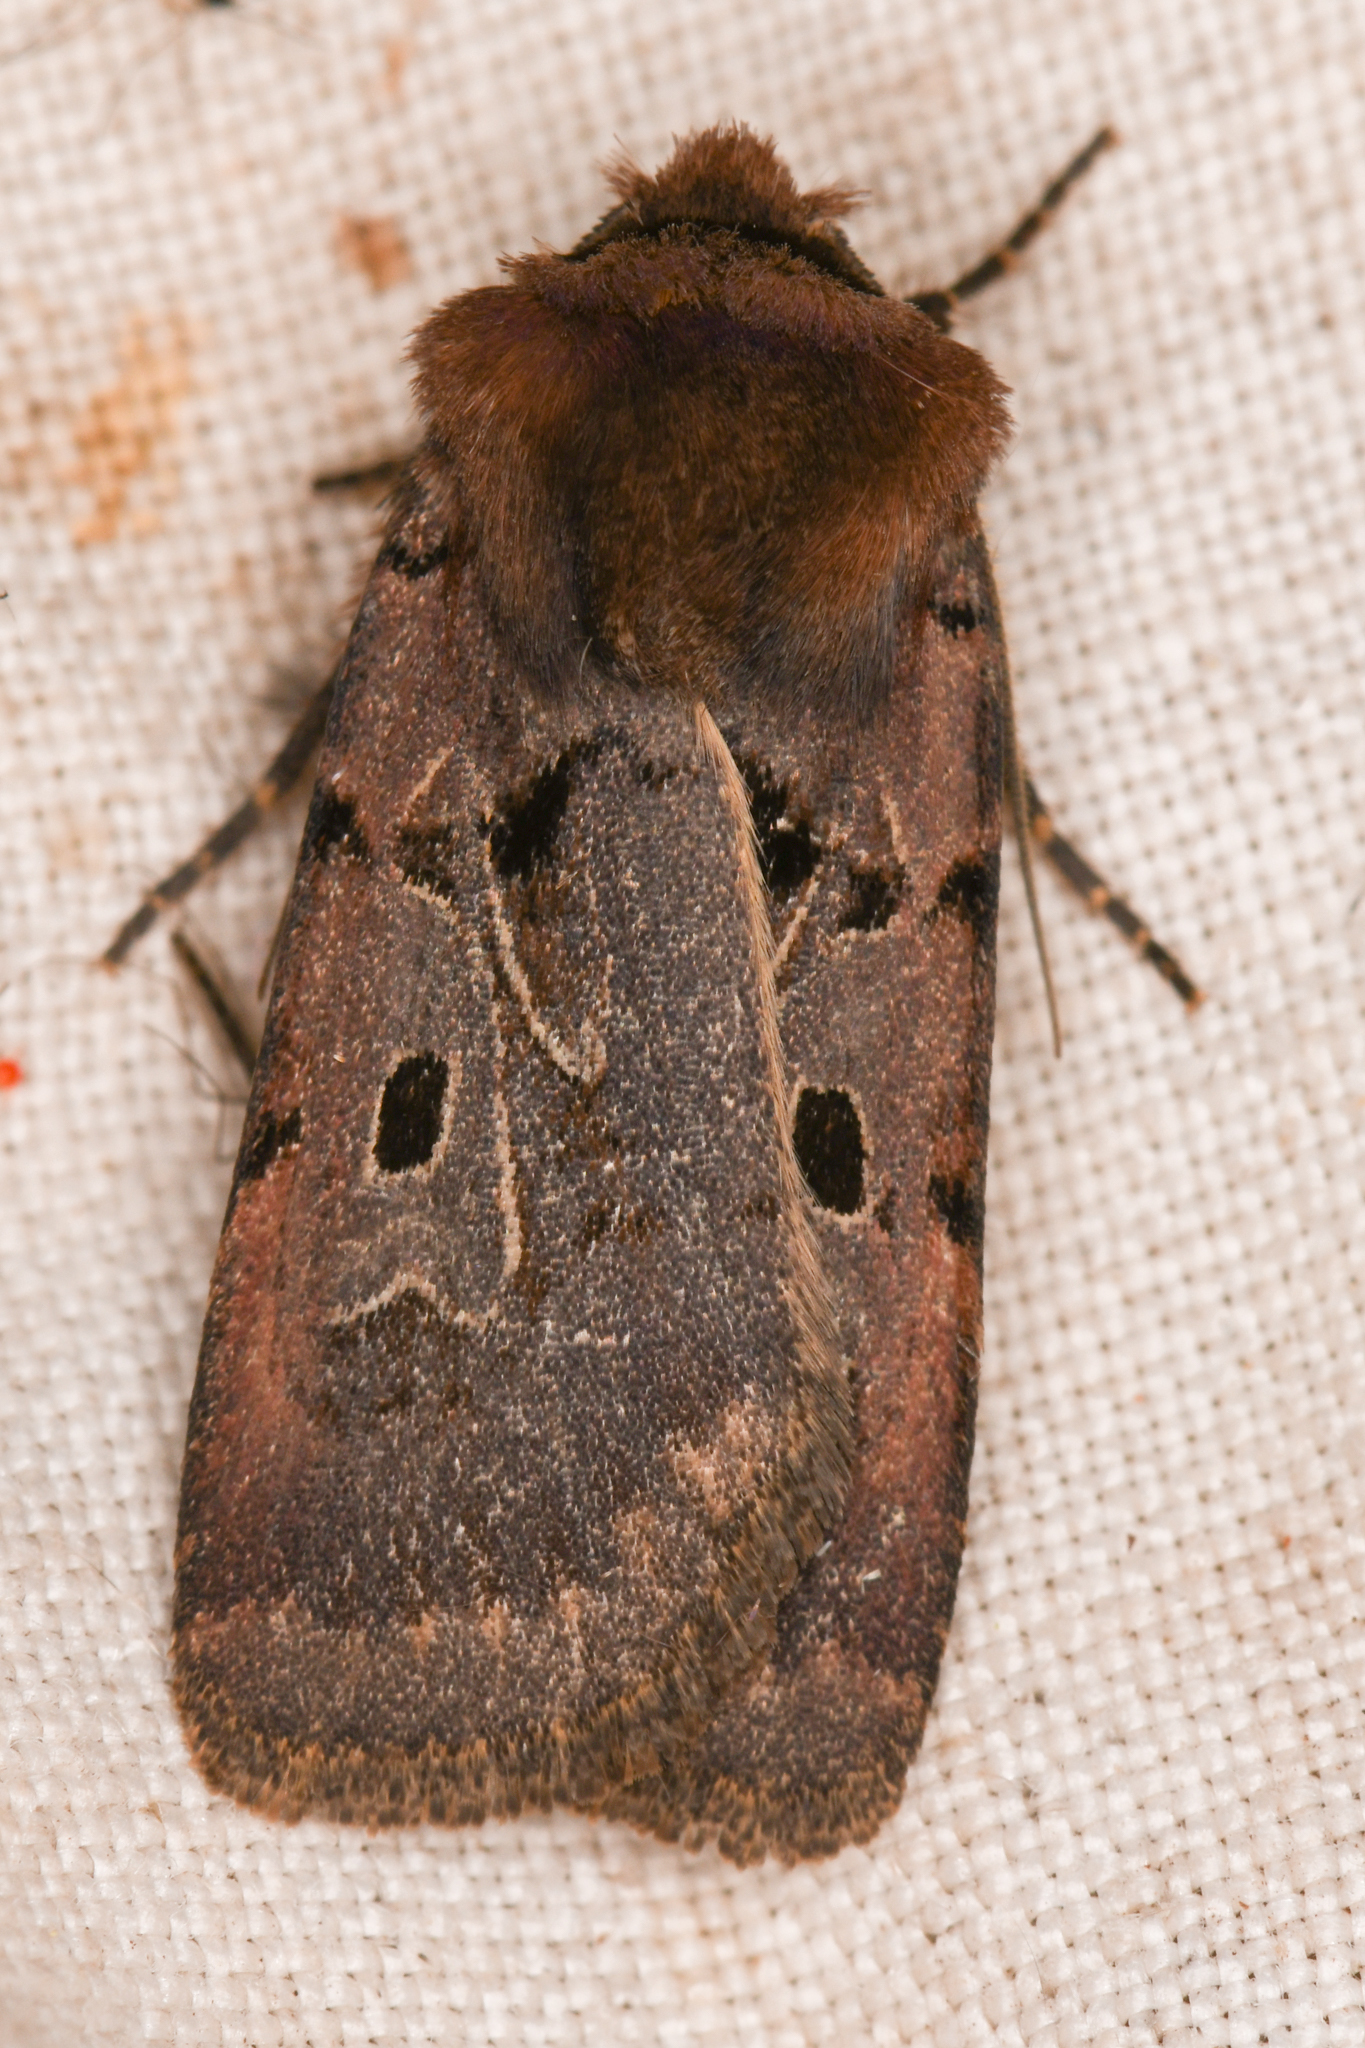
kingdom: Animalia
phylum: Arthropoda
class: Insecta
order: Lepidoptera
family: Noctuidae
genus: Chersotis
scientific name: Chersotis juncta
